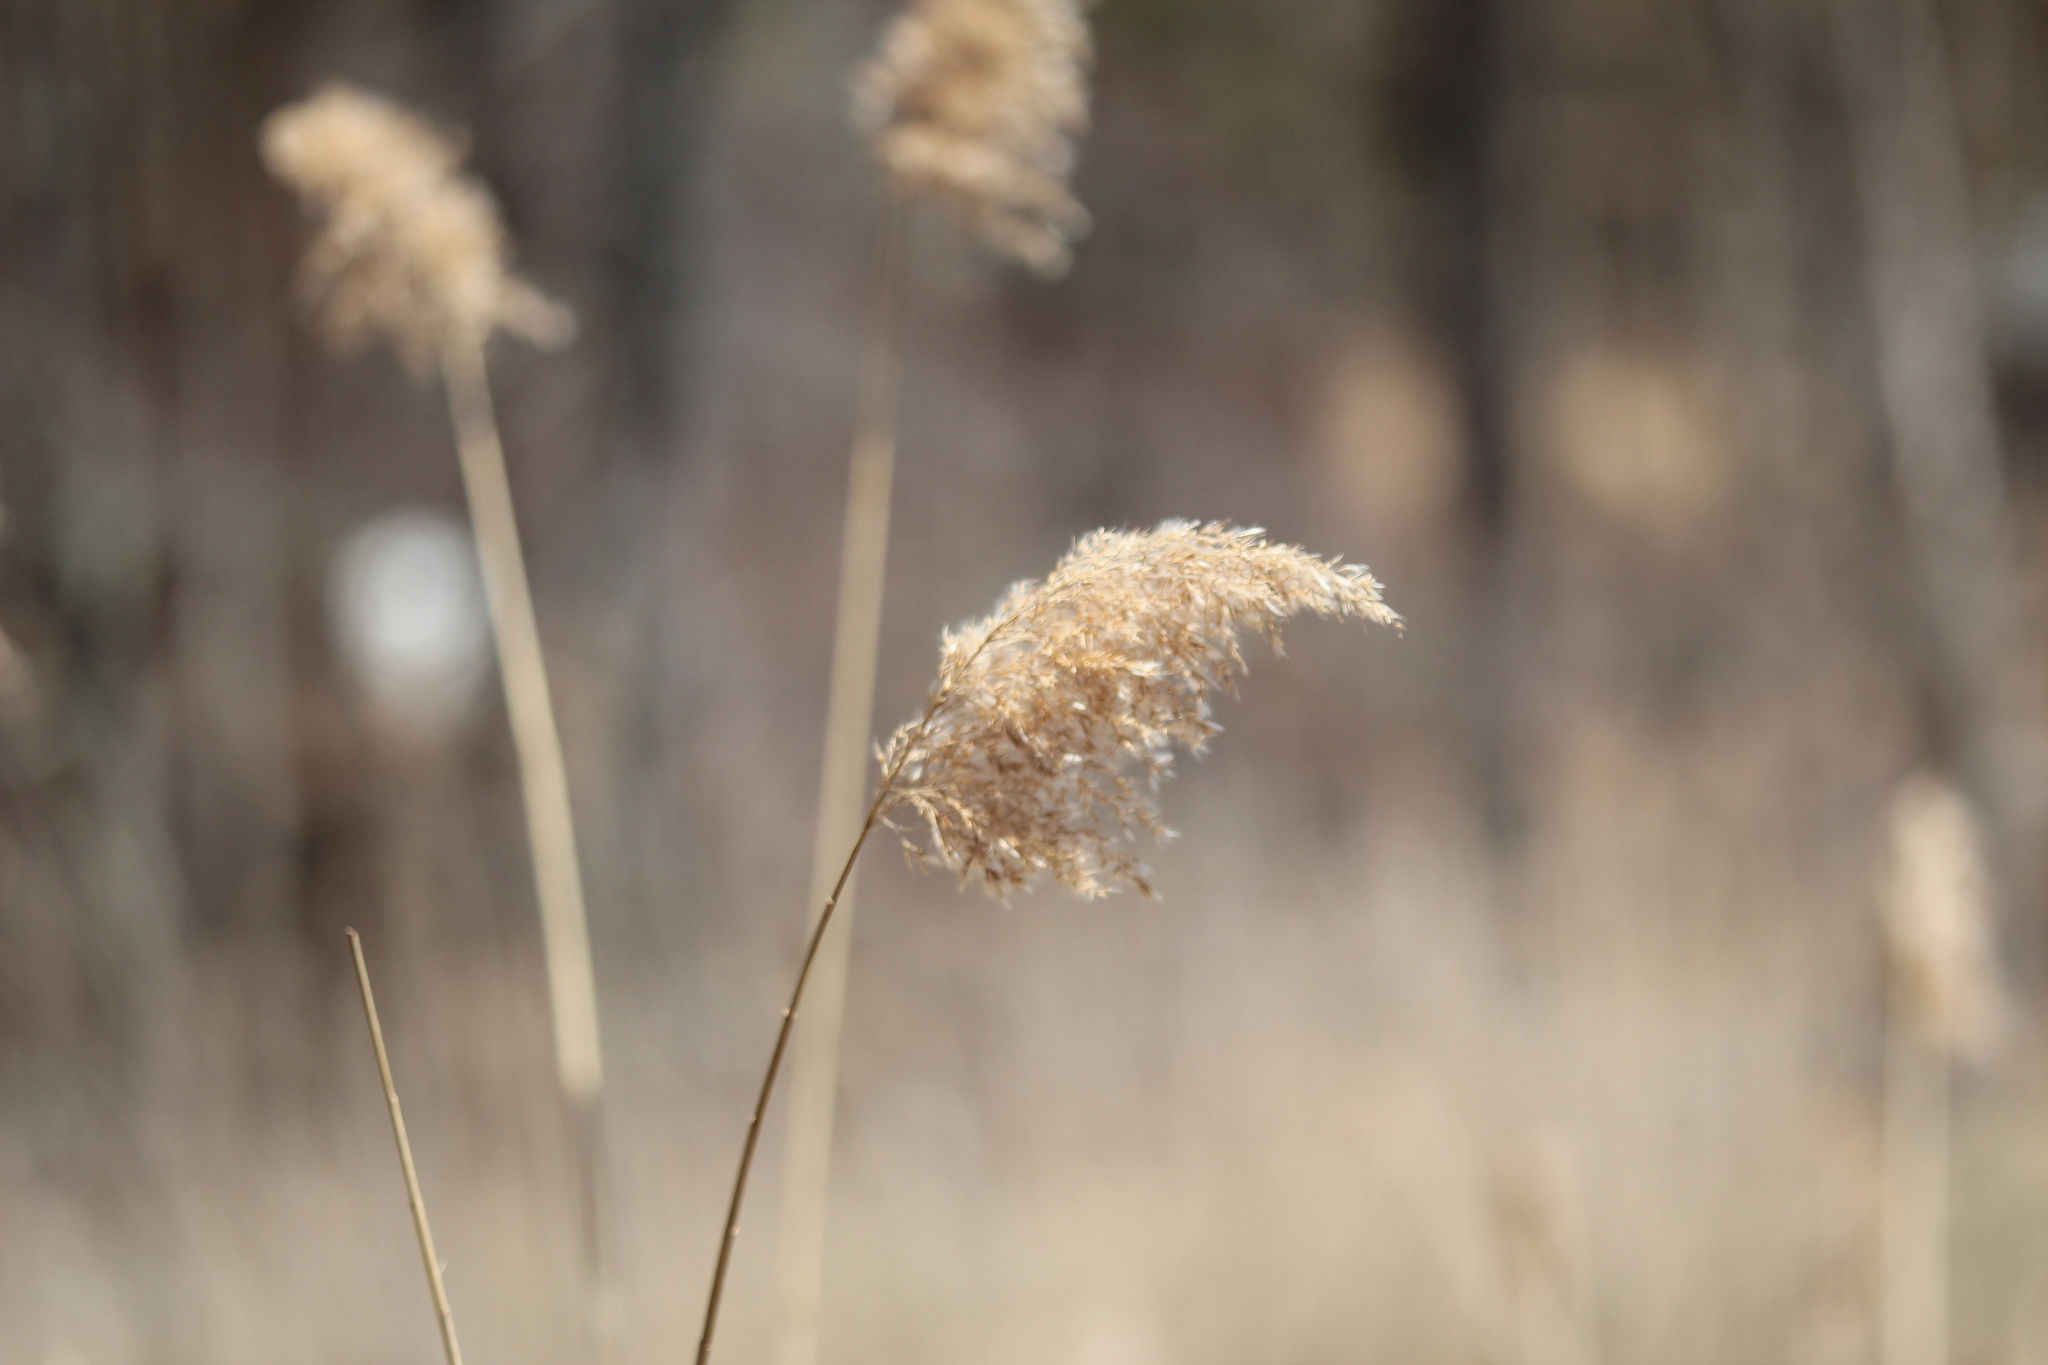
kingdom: Plantae
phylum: Tracheophyta
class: Liliopsida
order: Poales
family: Poaceae
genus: Phragmites
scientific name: Phragmites australis
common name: Common reed
